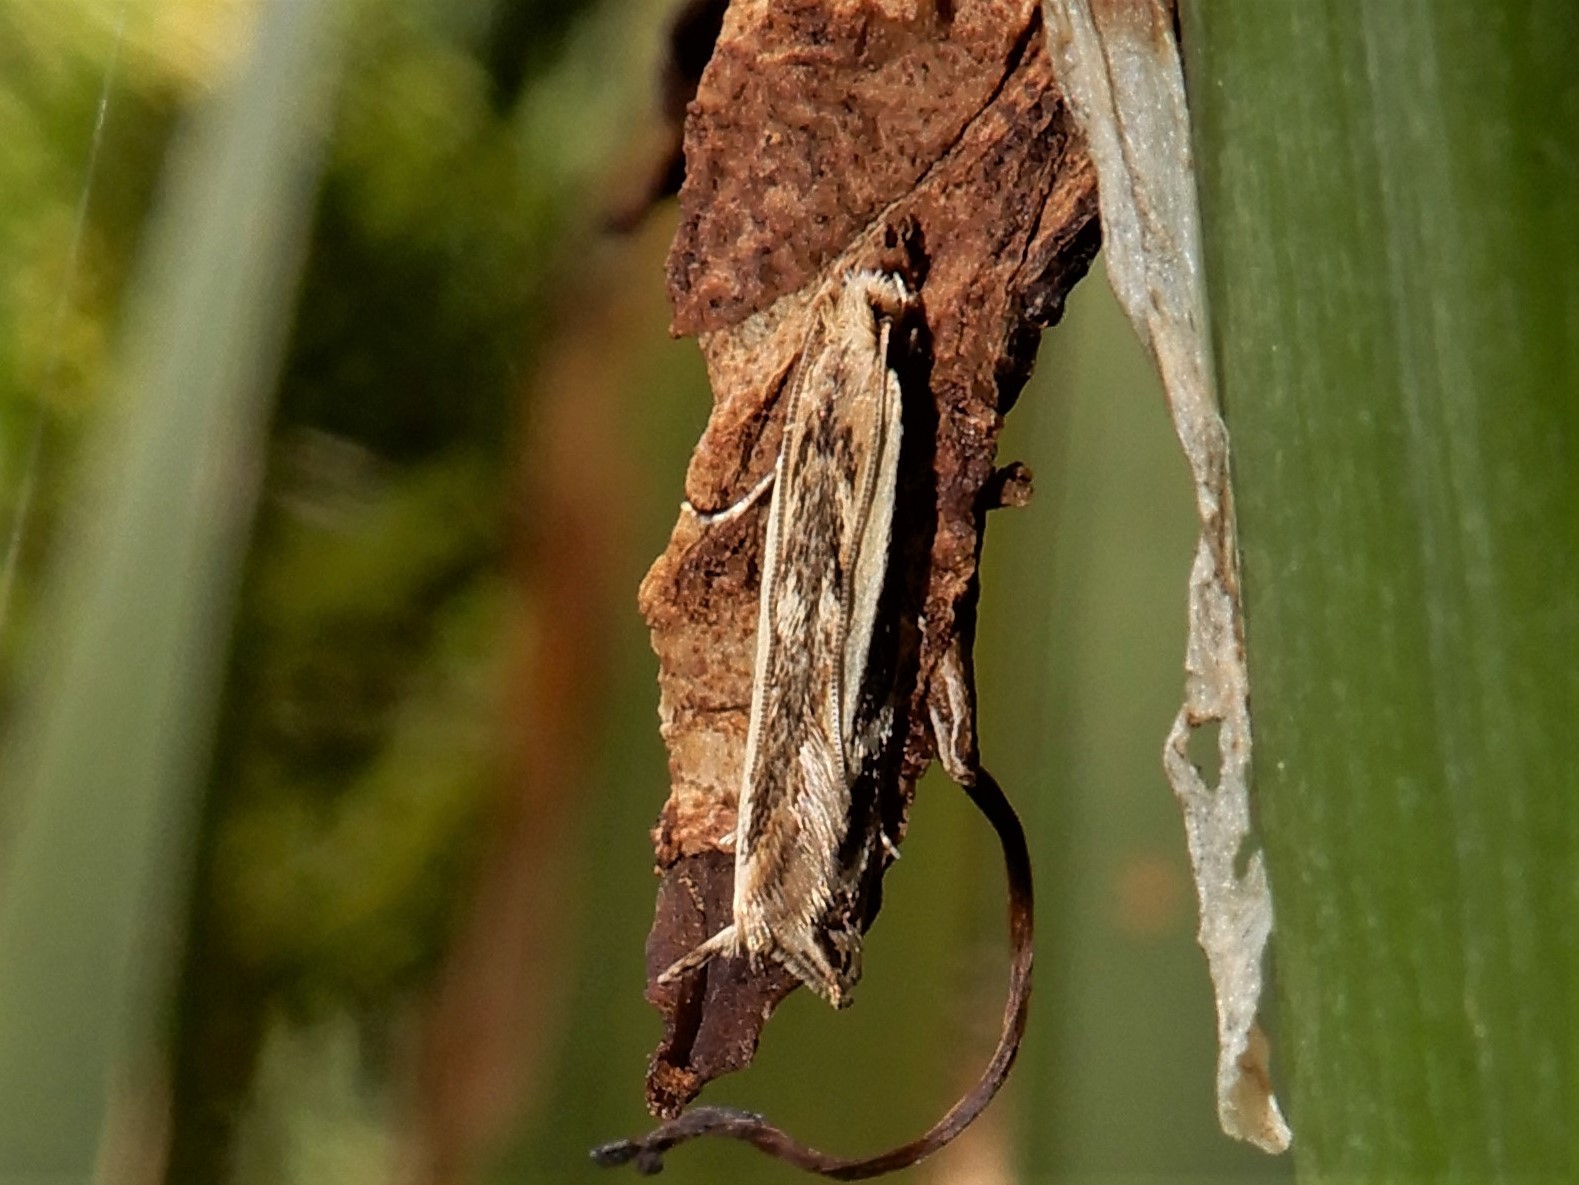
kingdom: Animalia
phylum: Arthropoda
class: Insecta
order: Lepidoptera
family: Tineidae
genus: Erechthias
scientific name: Erechthias terminella
